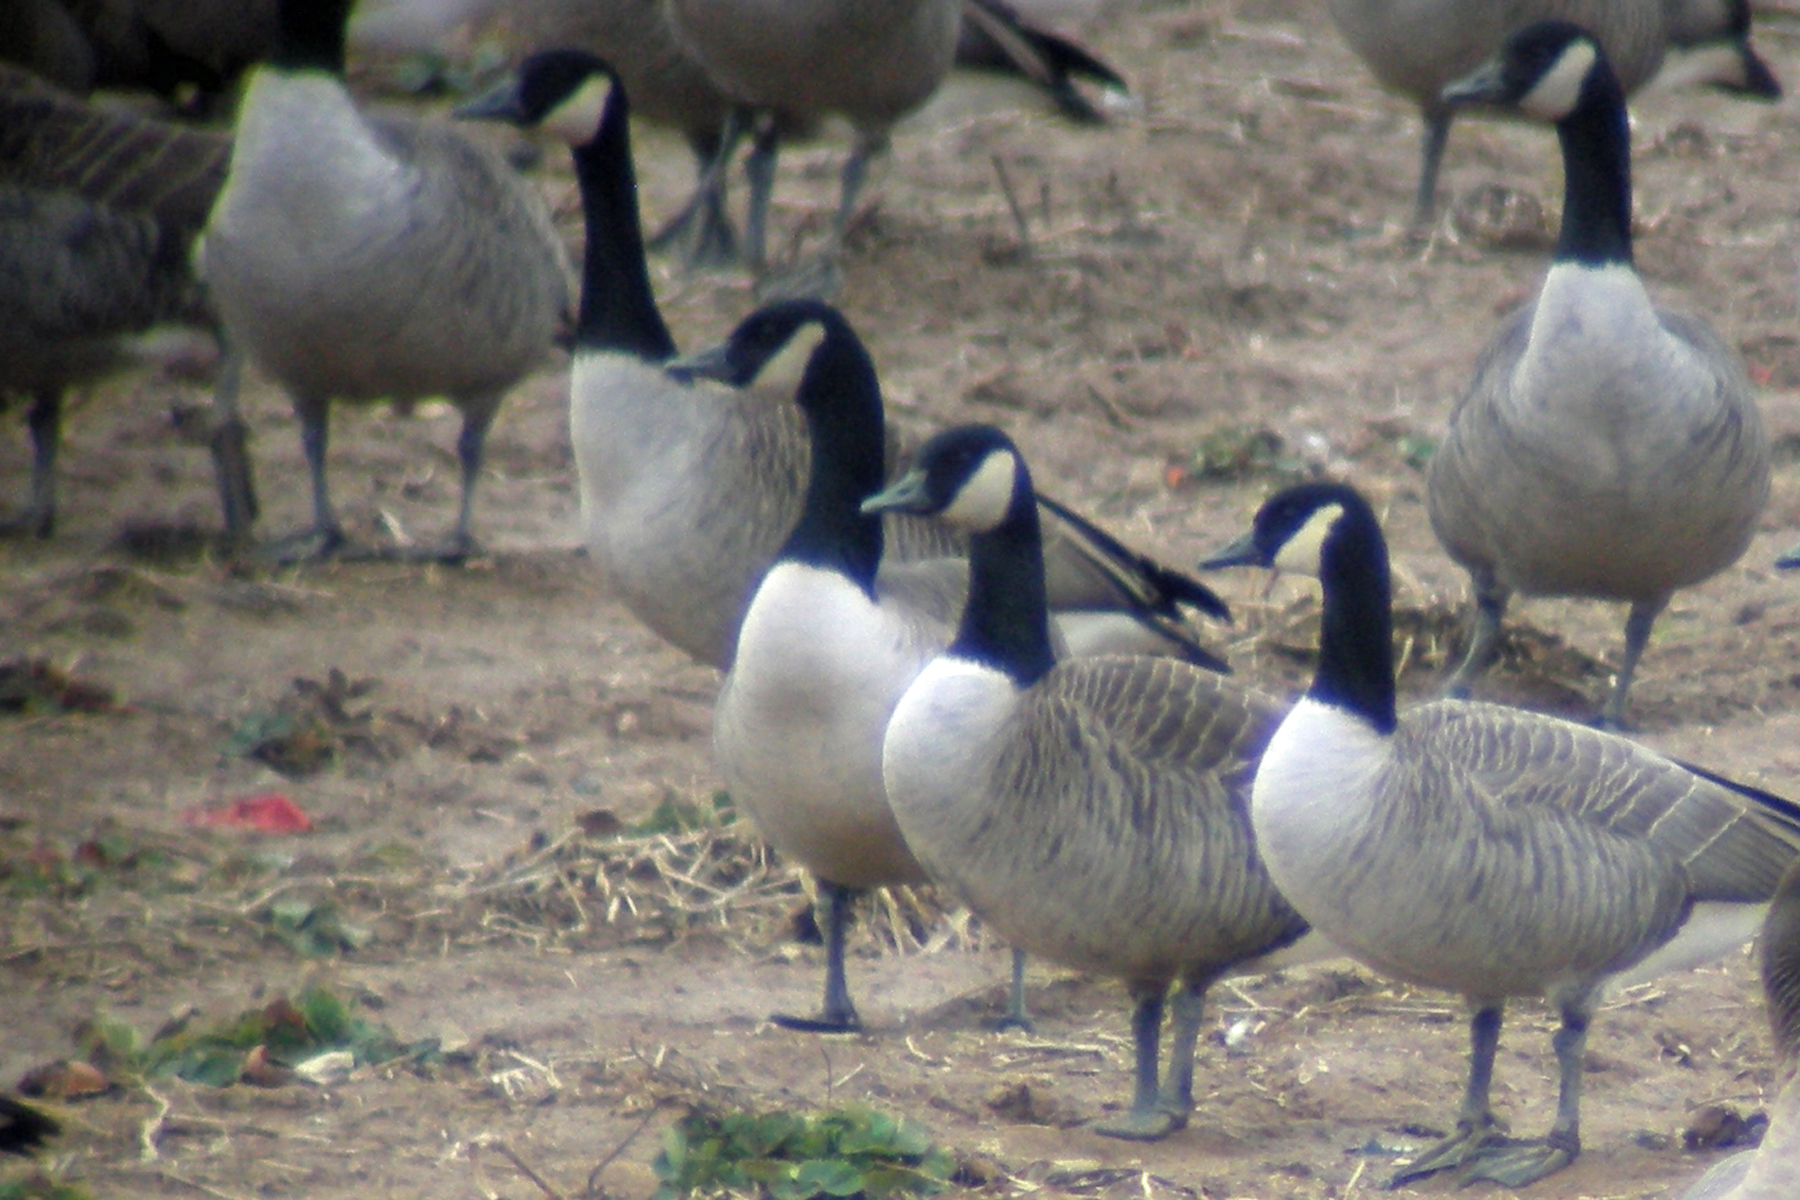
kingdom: Animalia
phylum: Chordata
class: Aves
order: Anseriformes
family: Anatidae
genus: Branta
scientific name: Branta canadensis
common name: Canada goose
